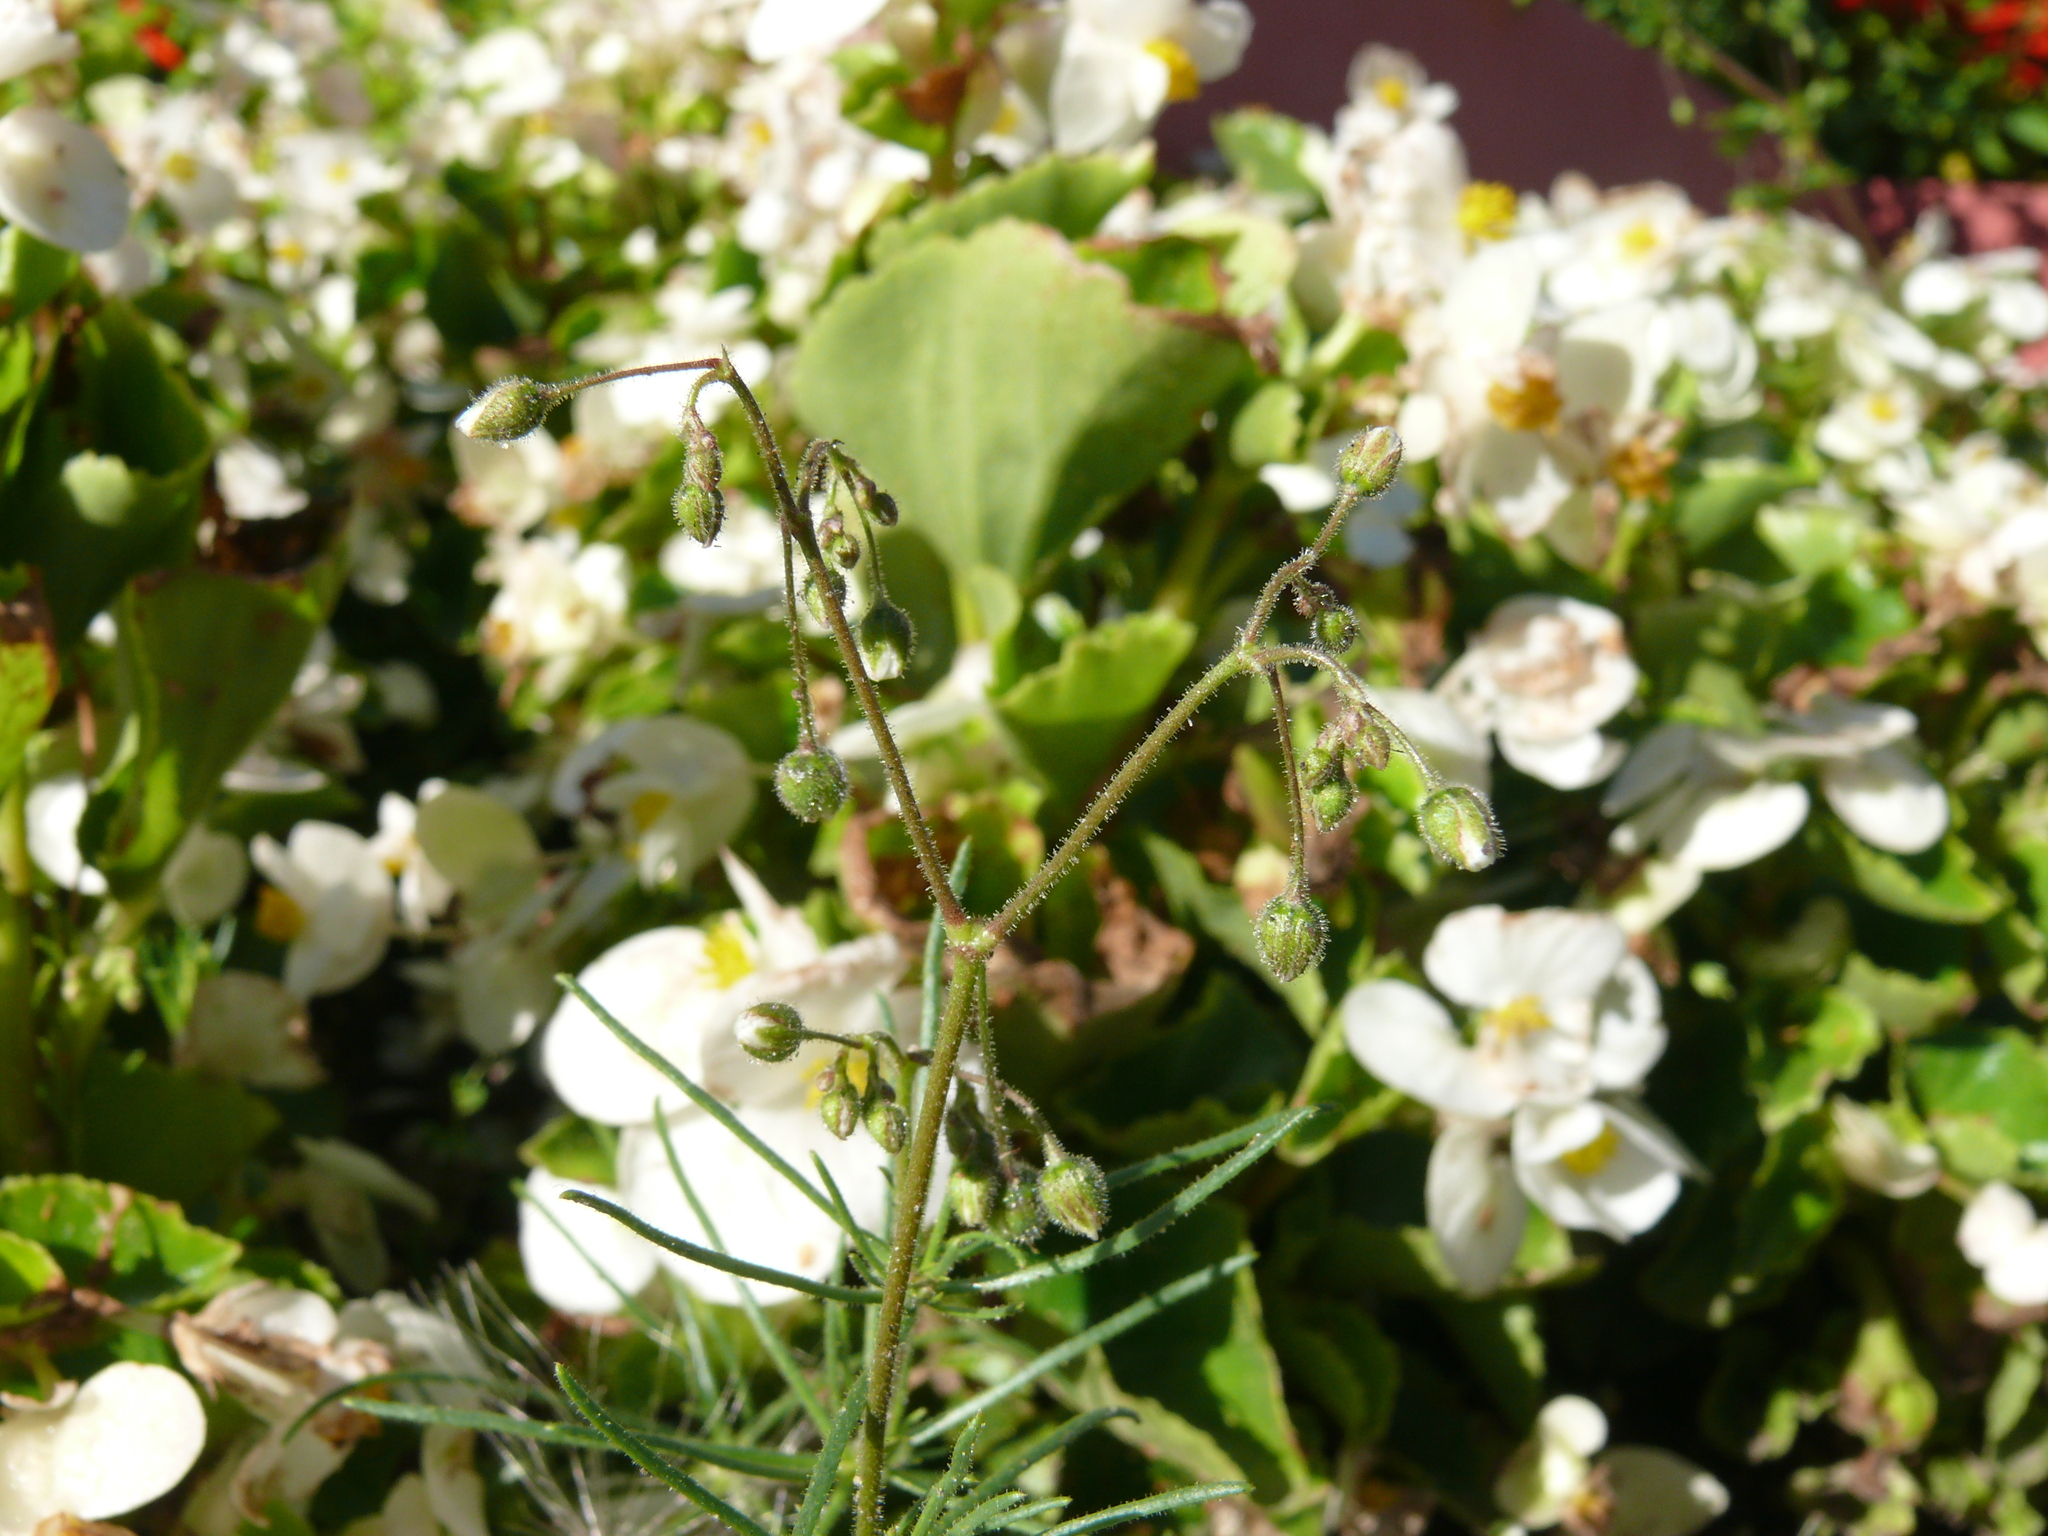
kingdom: Plantae
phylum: Tracheophyta
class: Magnoliopsida
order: Caryophyllales
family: Caryophyllaceae
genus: Spergula
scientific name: Spergula arvensis
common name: Corn spurrey
